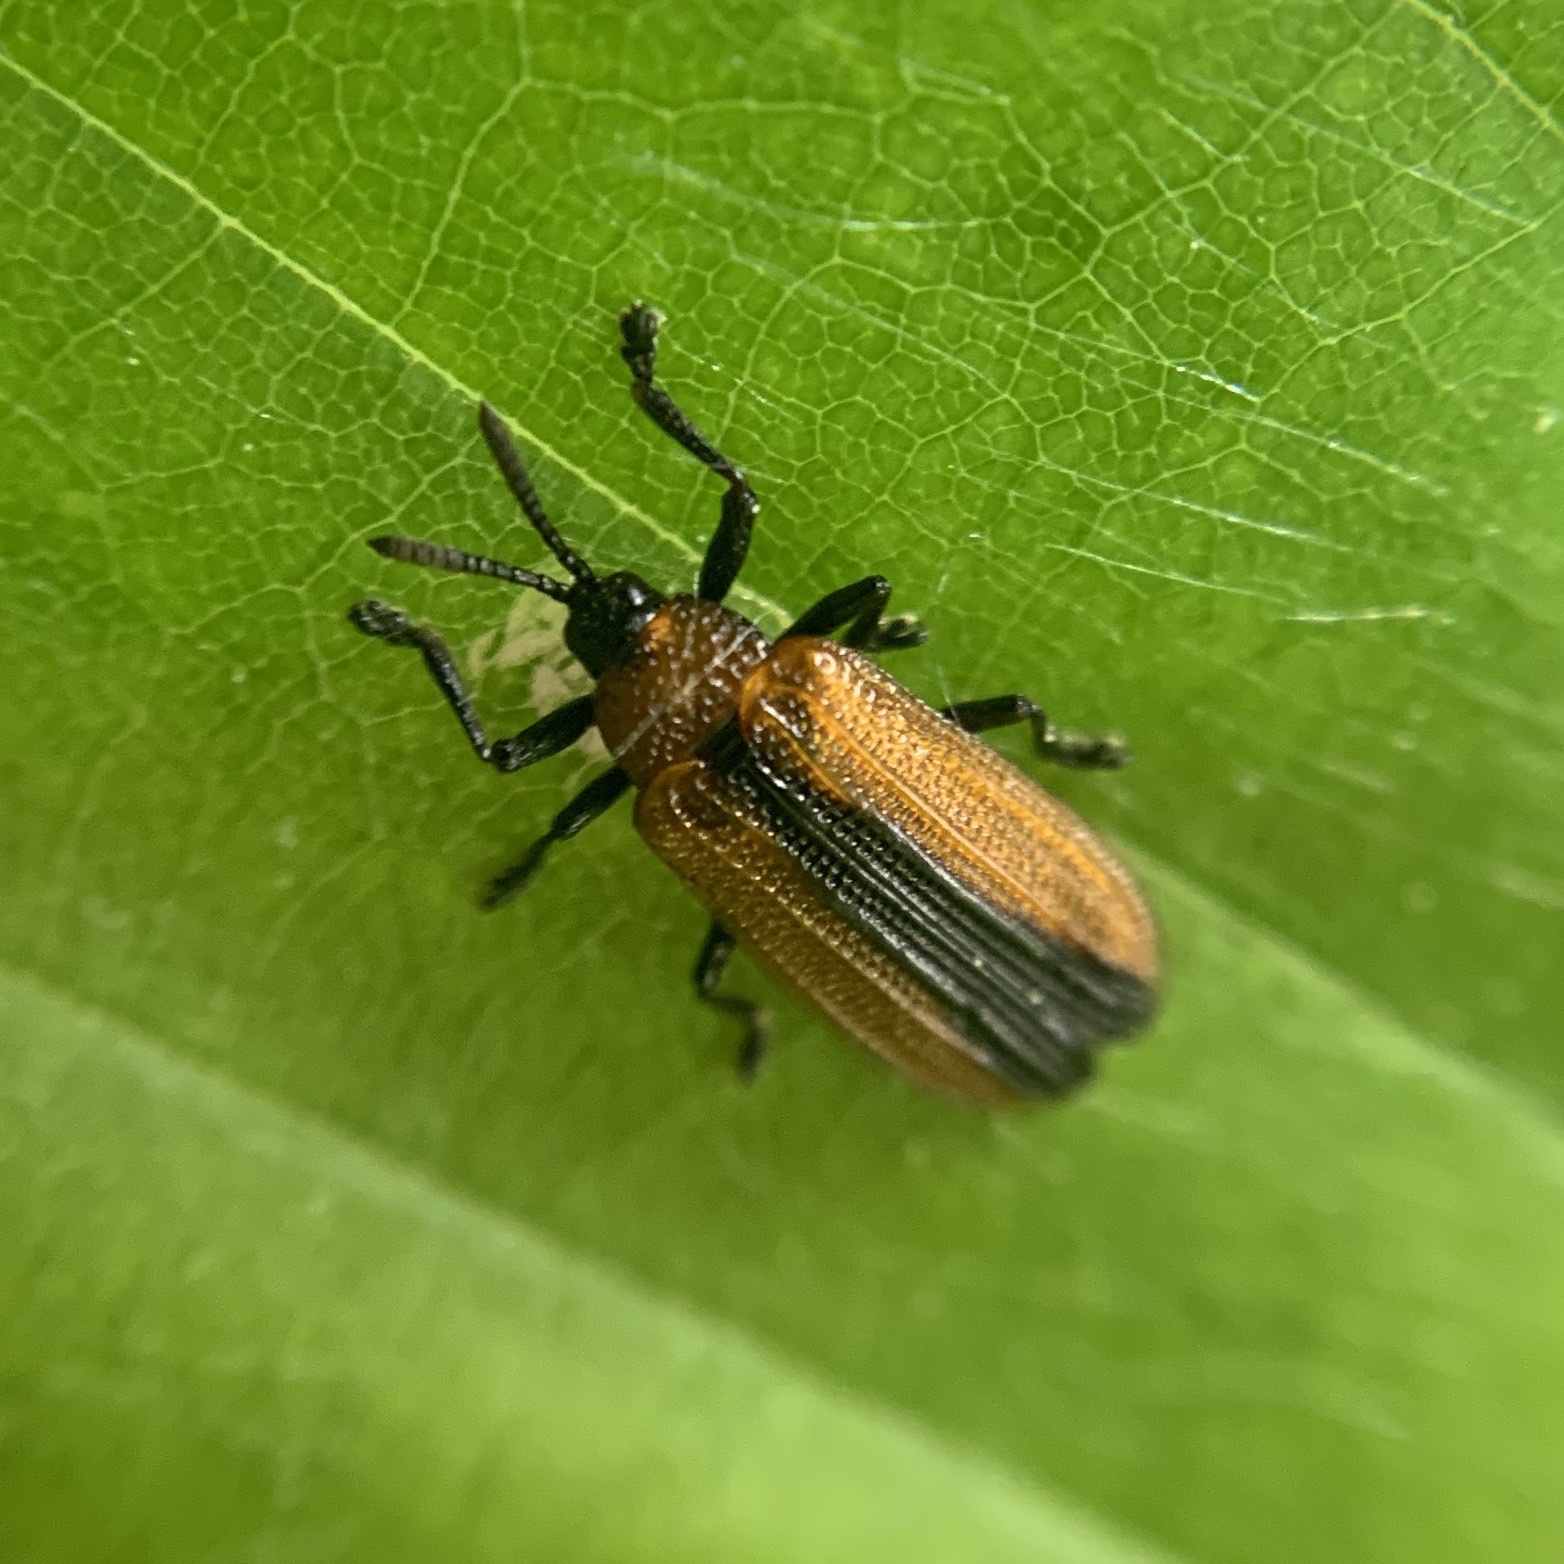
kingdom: Animalia
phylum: Arthropoda
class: Insecta
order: Coleoptera
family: Chrysomelidae
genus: Odontota
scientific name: Odontota dorsalis
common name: Locust leaf-miner beetle
